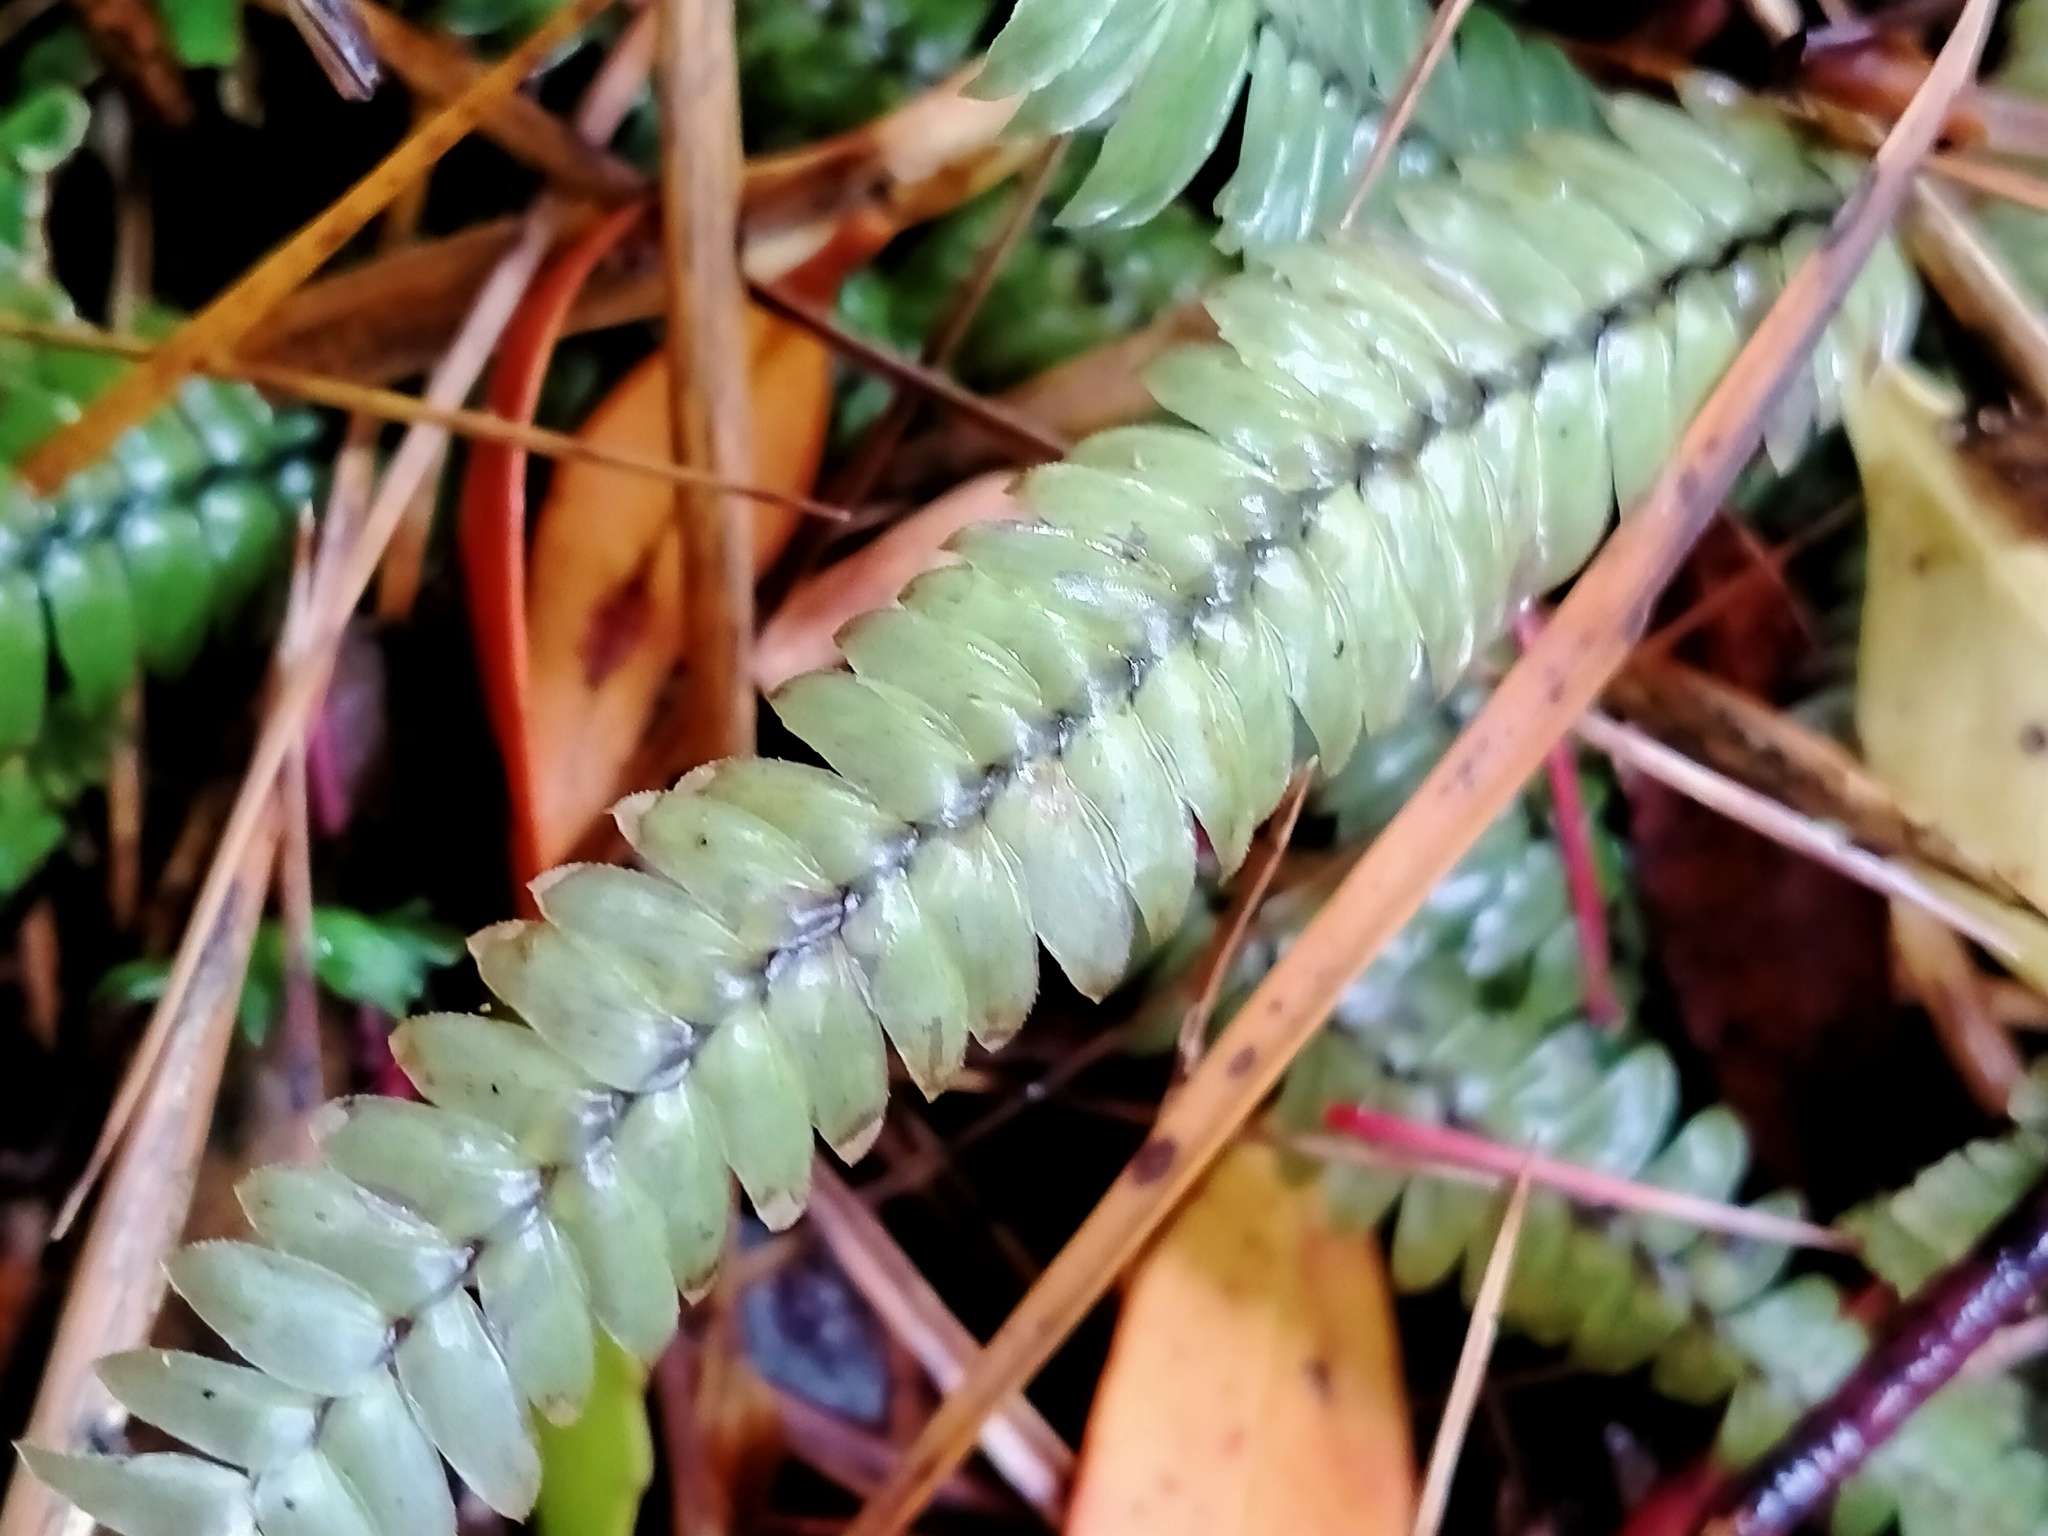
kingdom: Plantae
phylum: Bryophyta
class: Bryopsida
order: Hypopterygiales
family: Hypopterygiaceae
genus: Cyathophorum
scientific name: Cyathophorum bulbosum
